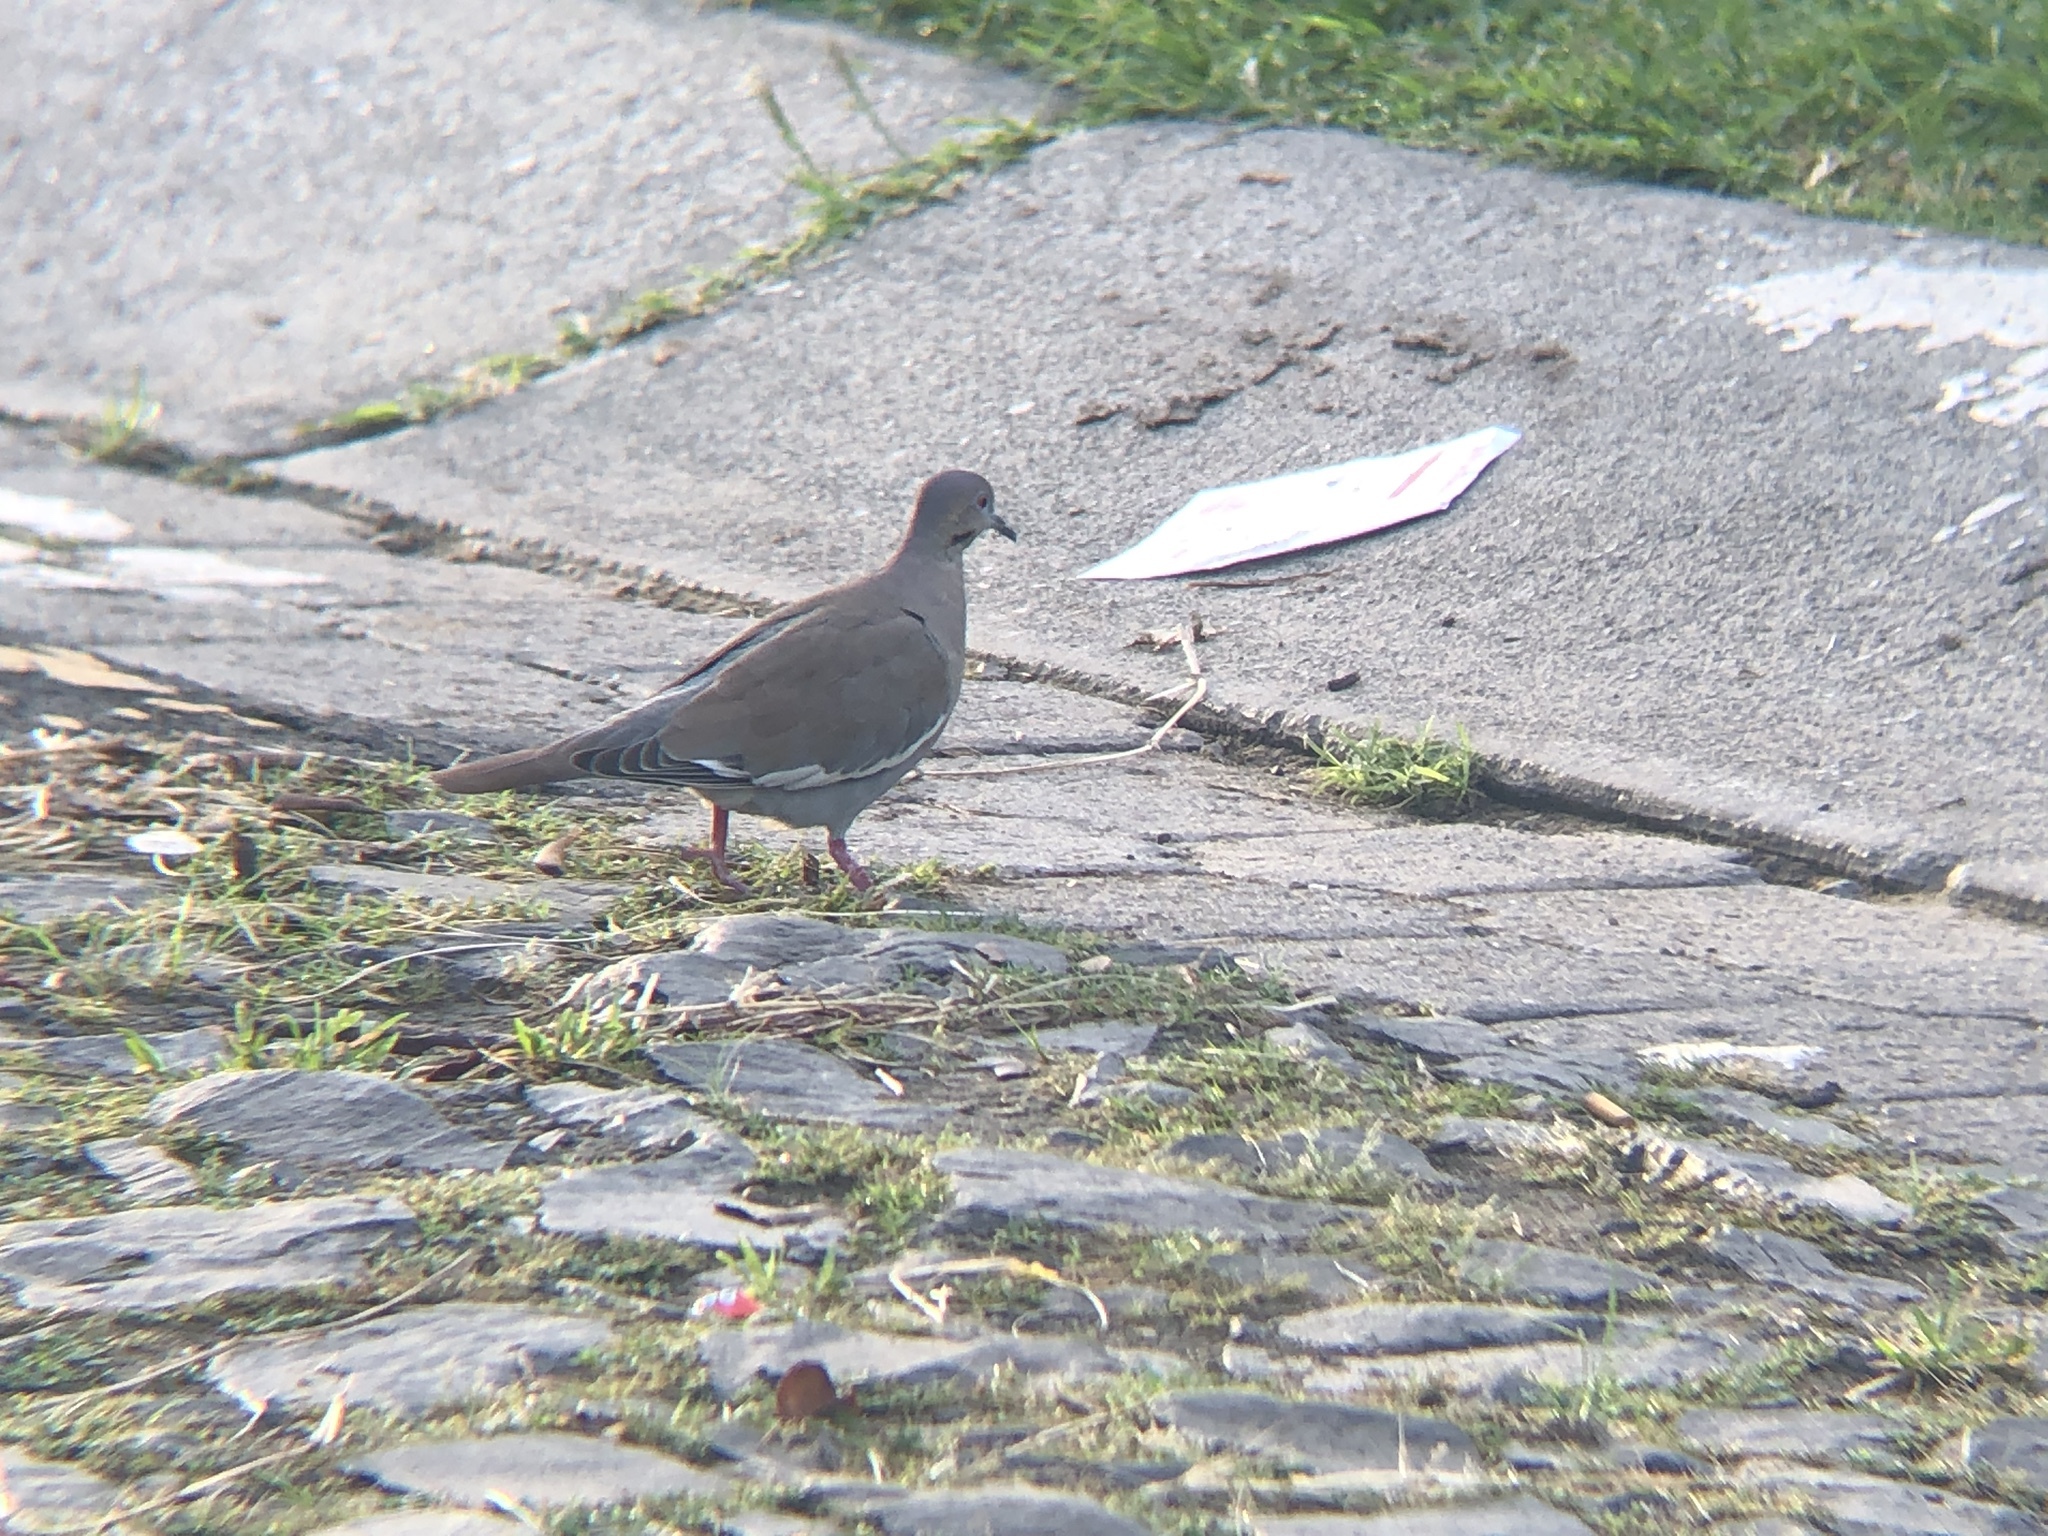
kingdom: Animalia
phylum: Chordata
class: Aves
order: Columbiformes
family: Columbidae
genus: Zenaida
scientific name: Zenaida asiatica
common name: White-winged dove
